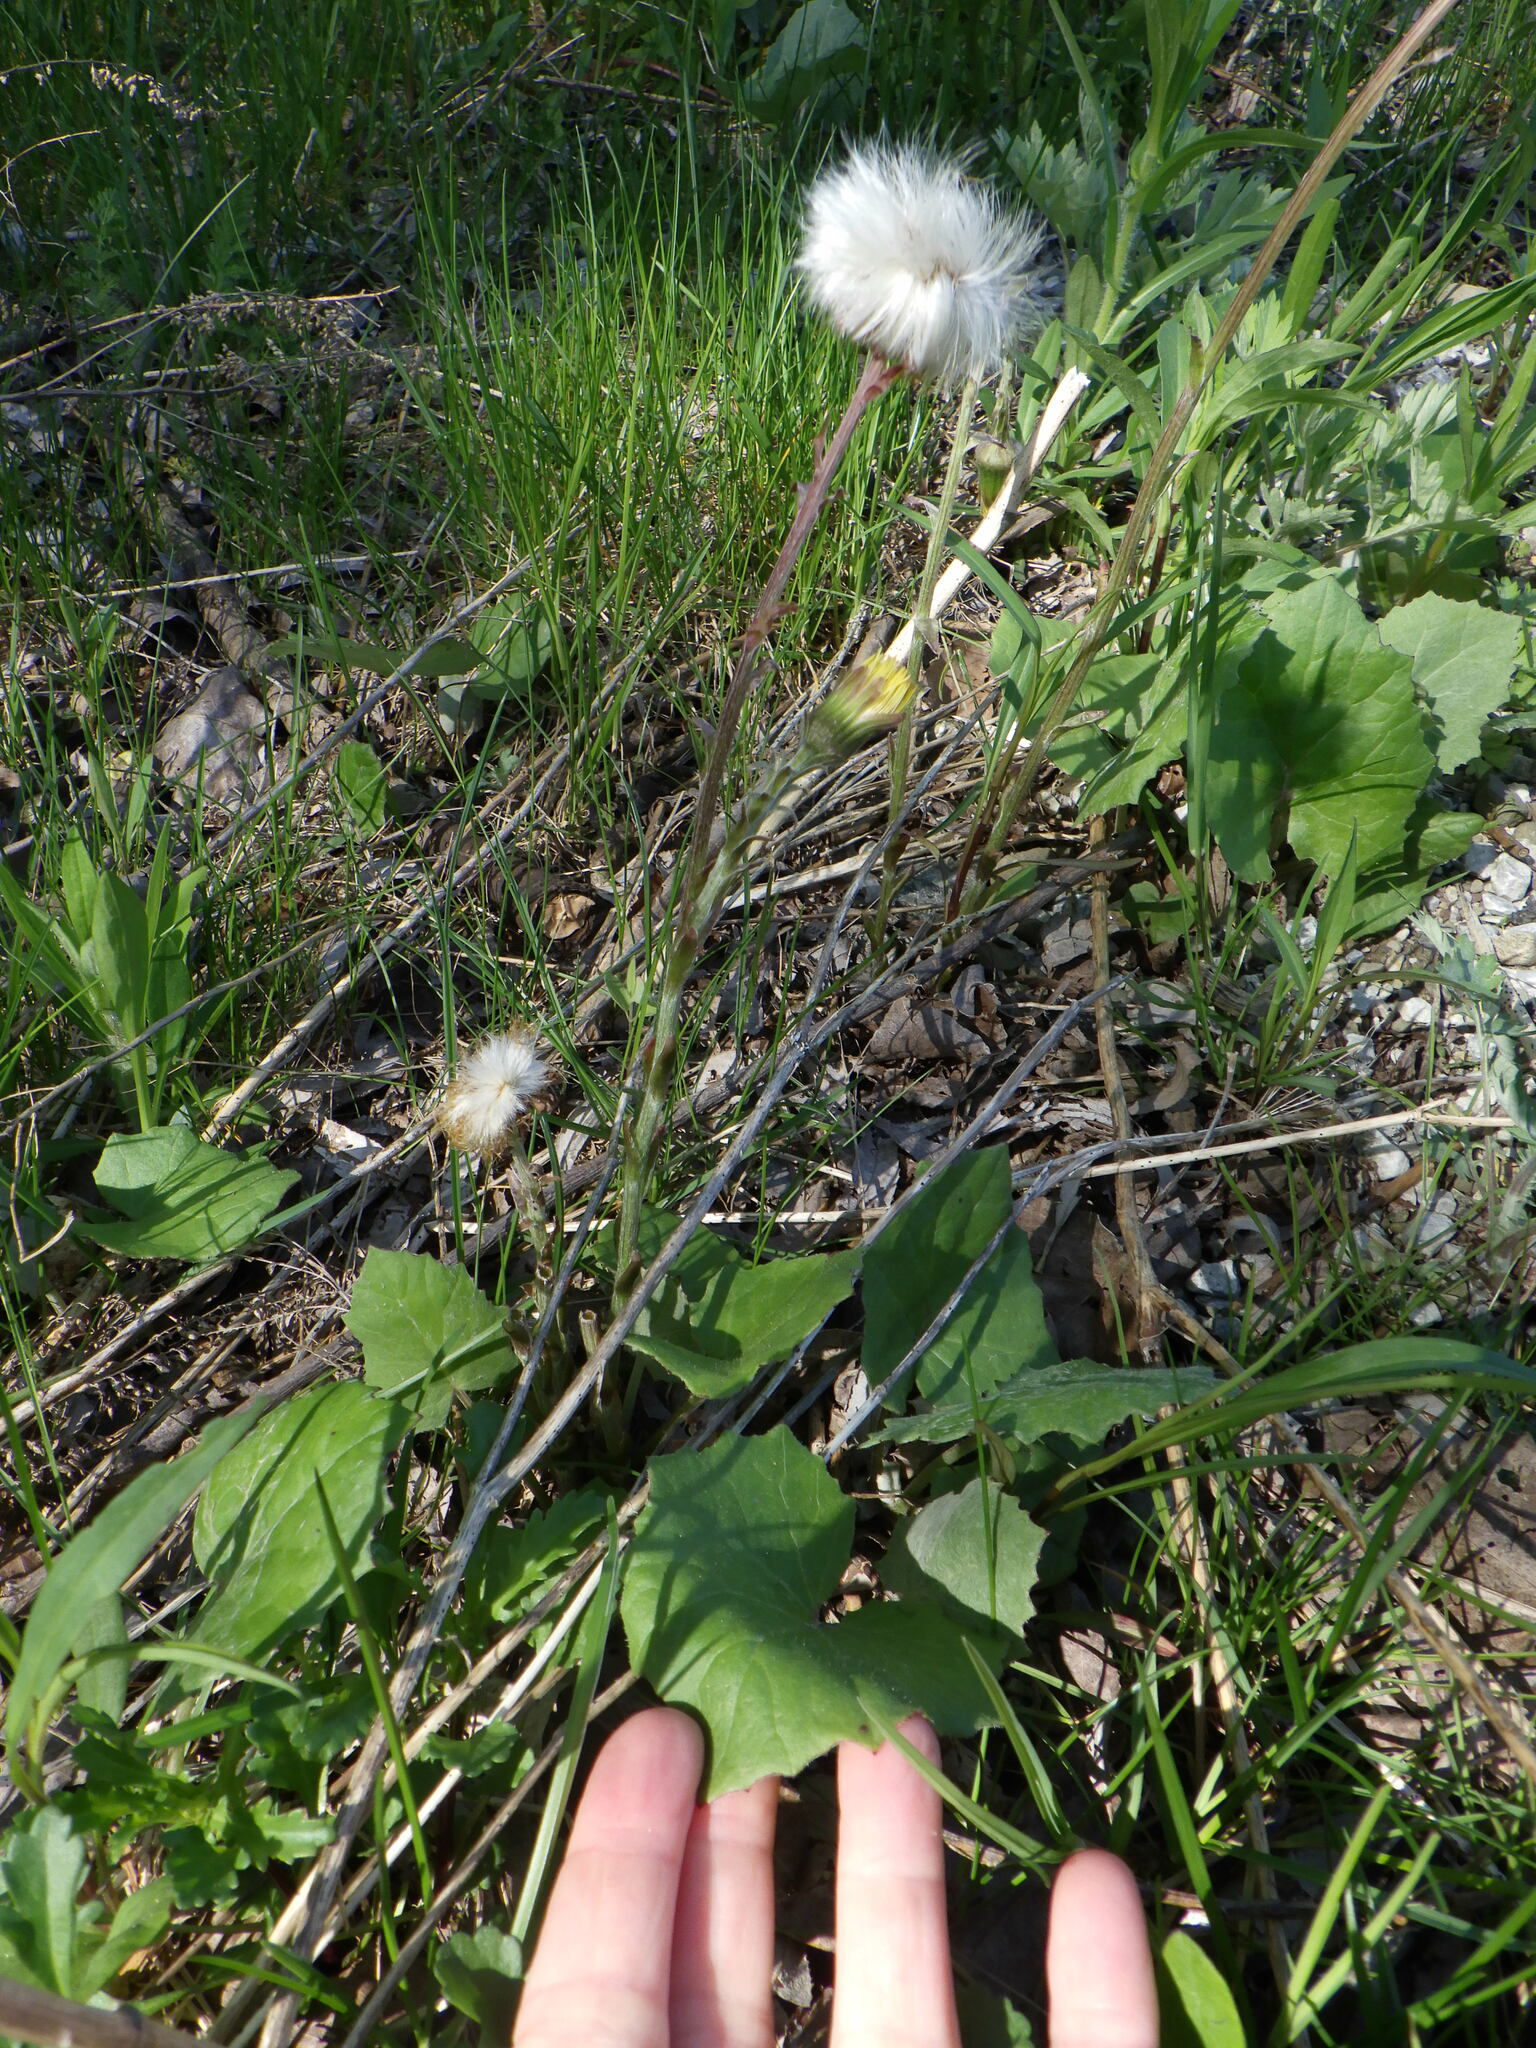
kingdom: Plantae
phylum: Tracheophyta
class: Magnoliopsida
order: Asterales
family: Asteraceae
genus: Tussilago
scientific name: Tussilago farfara
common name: Coltsfoot
